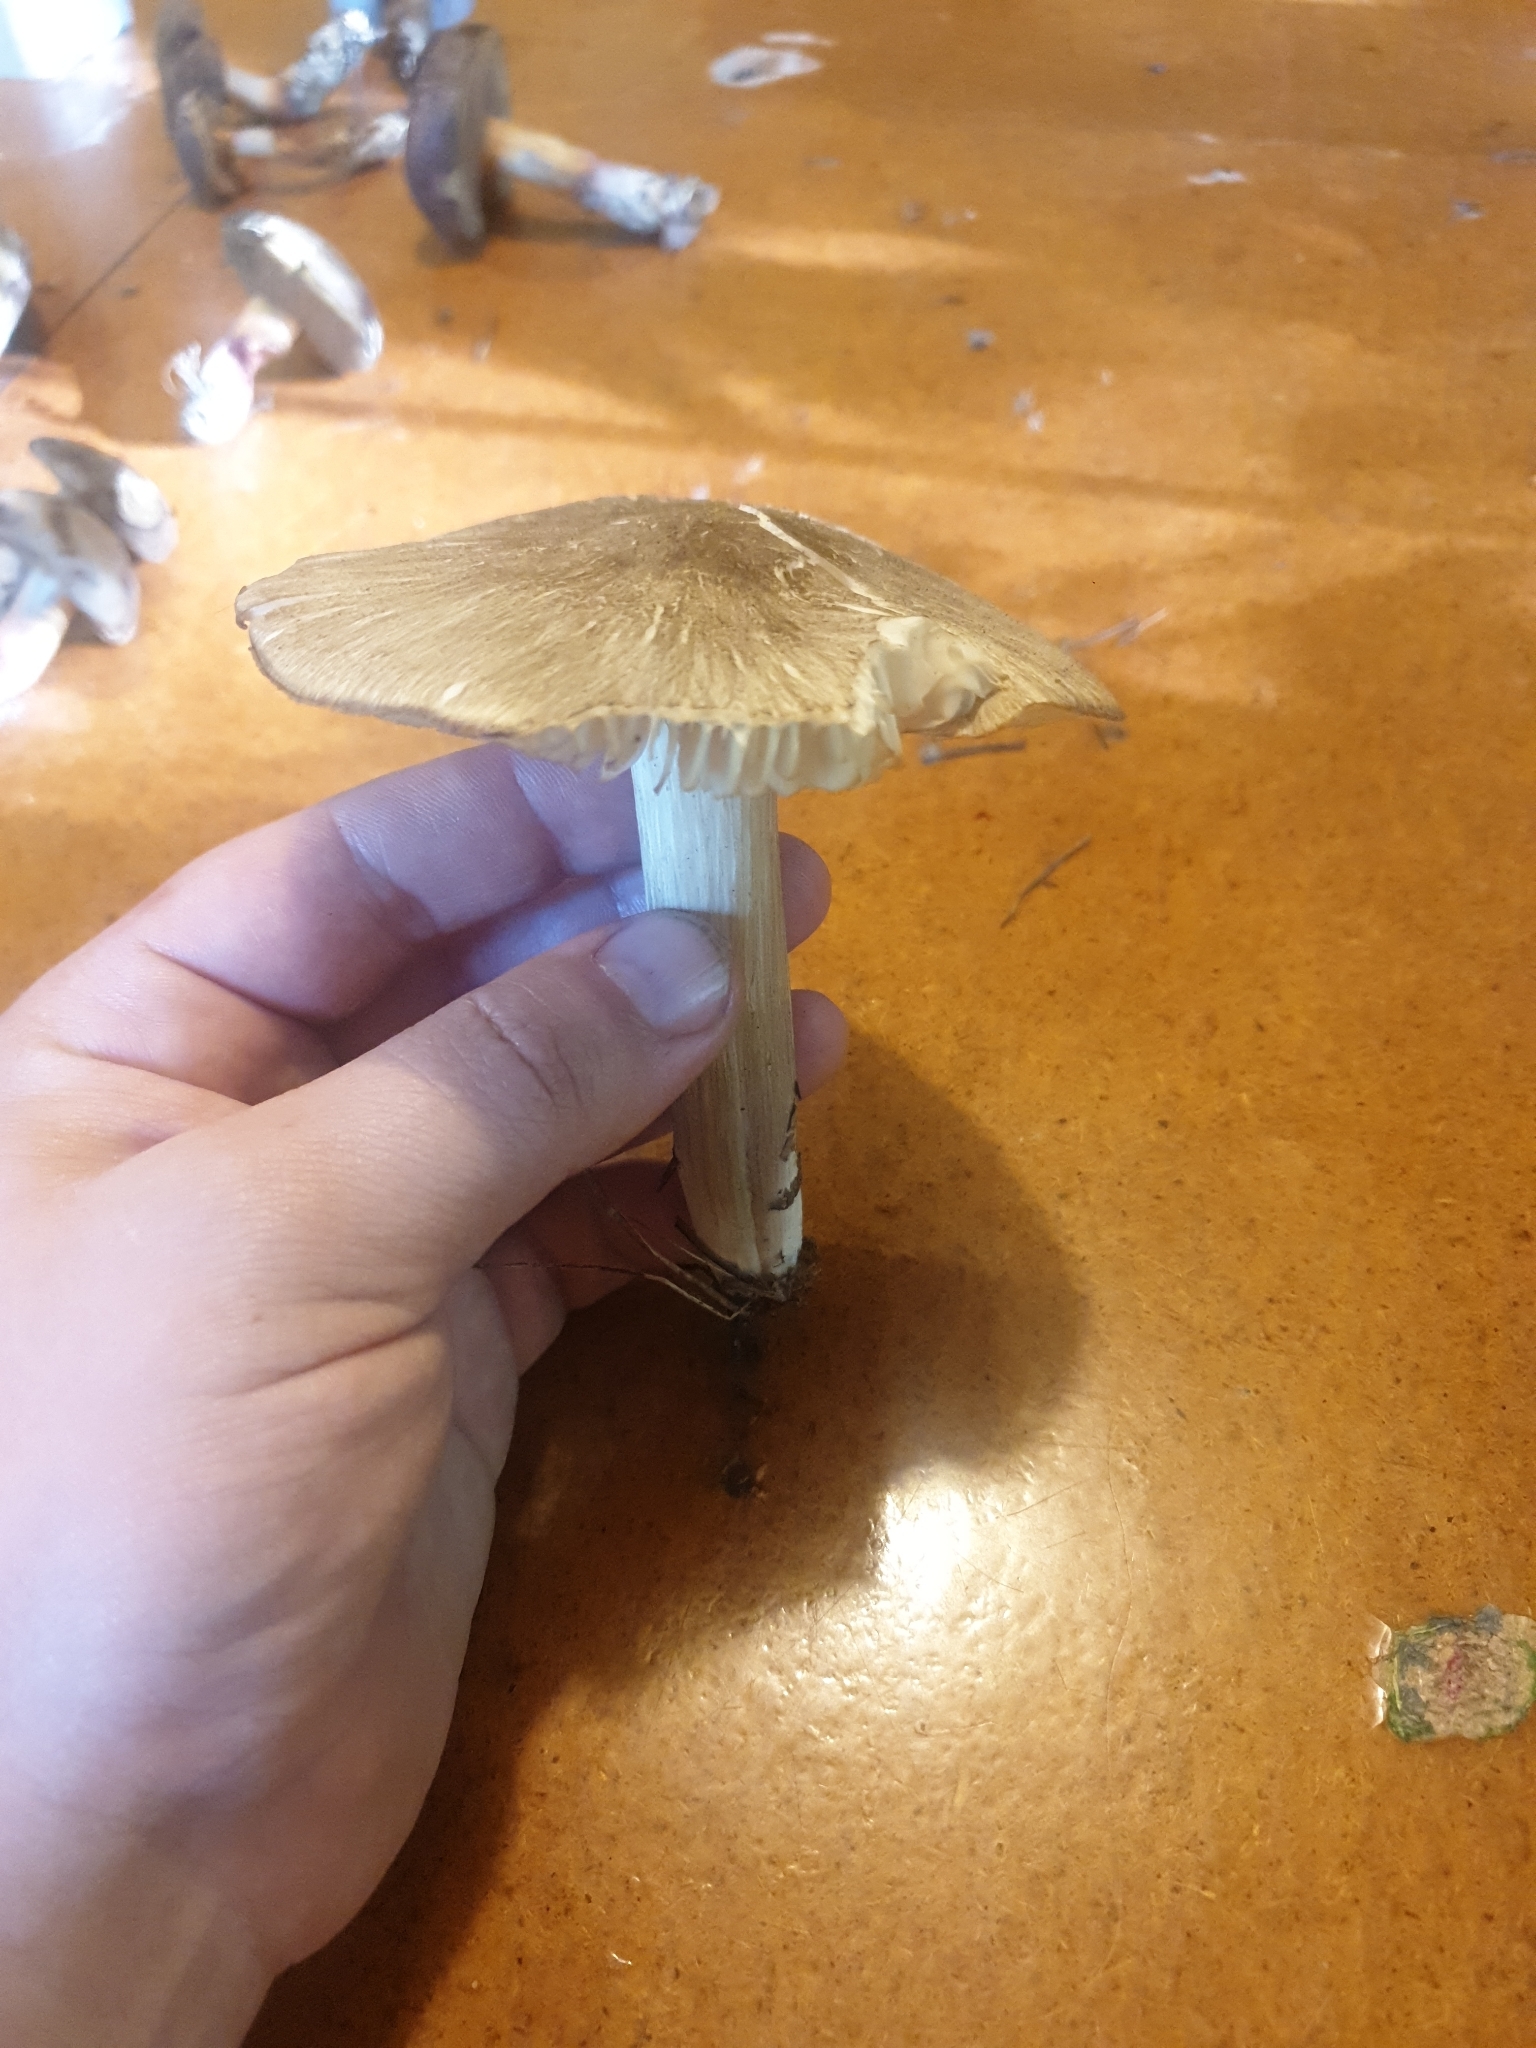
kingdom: Fungi
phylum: Basidiomycota
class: Agaricomycetes
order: Agaricales
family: Tricholomataceae
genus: Megacollybia
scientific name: Megacollybia platyphylla
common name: Whitelaced shank
